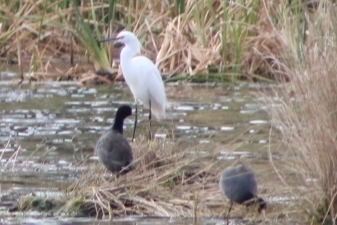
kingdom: Animalia
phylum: Chordata
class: Aves
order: Pelecaniformes
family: Ardeidae
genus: Egretta
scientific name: Egretta thula
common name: Snowy egret
